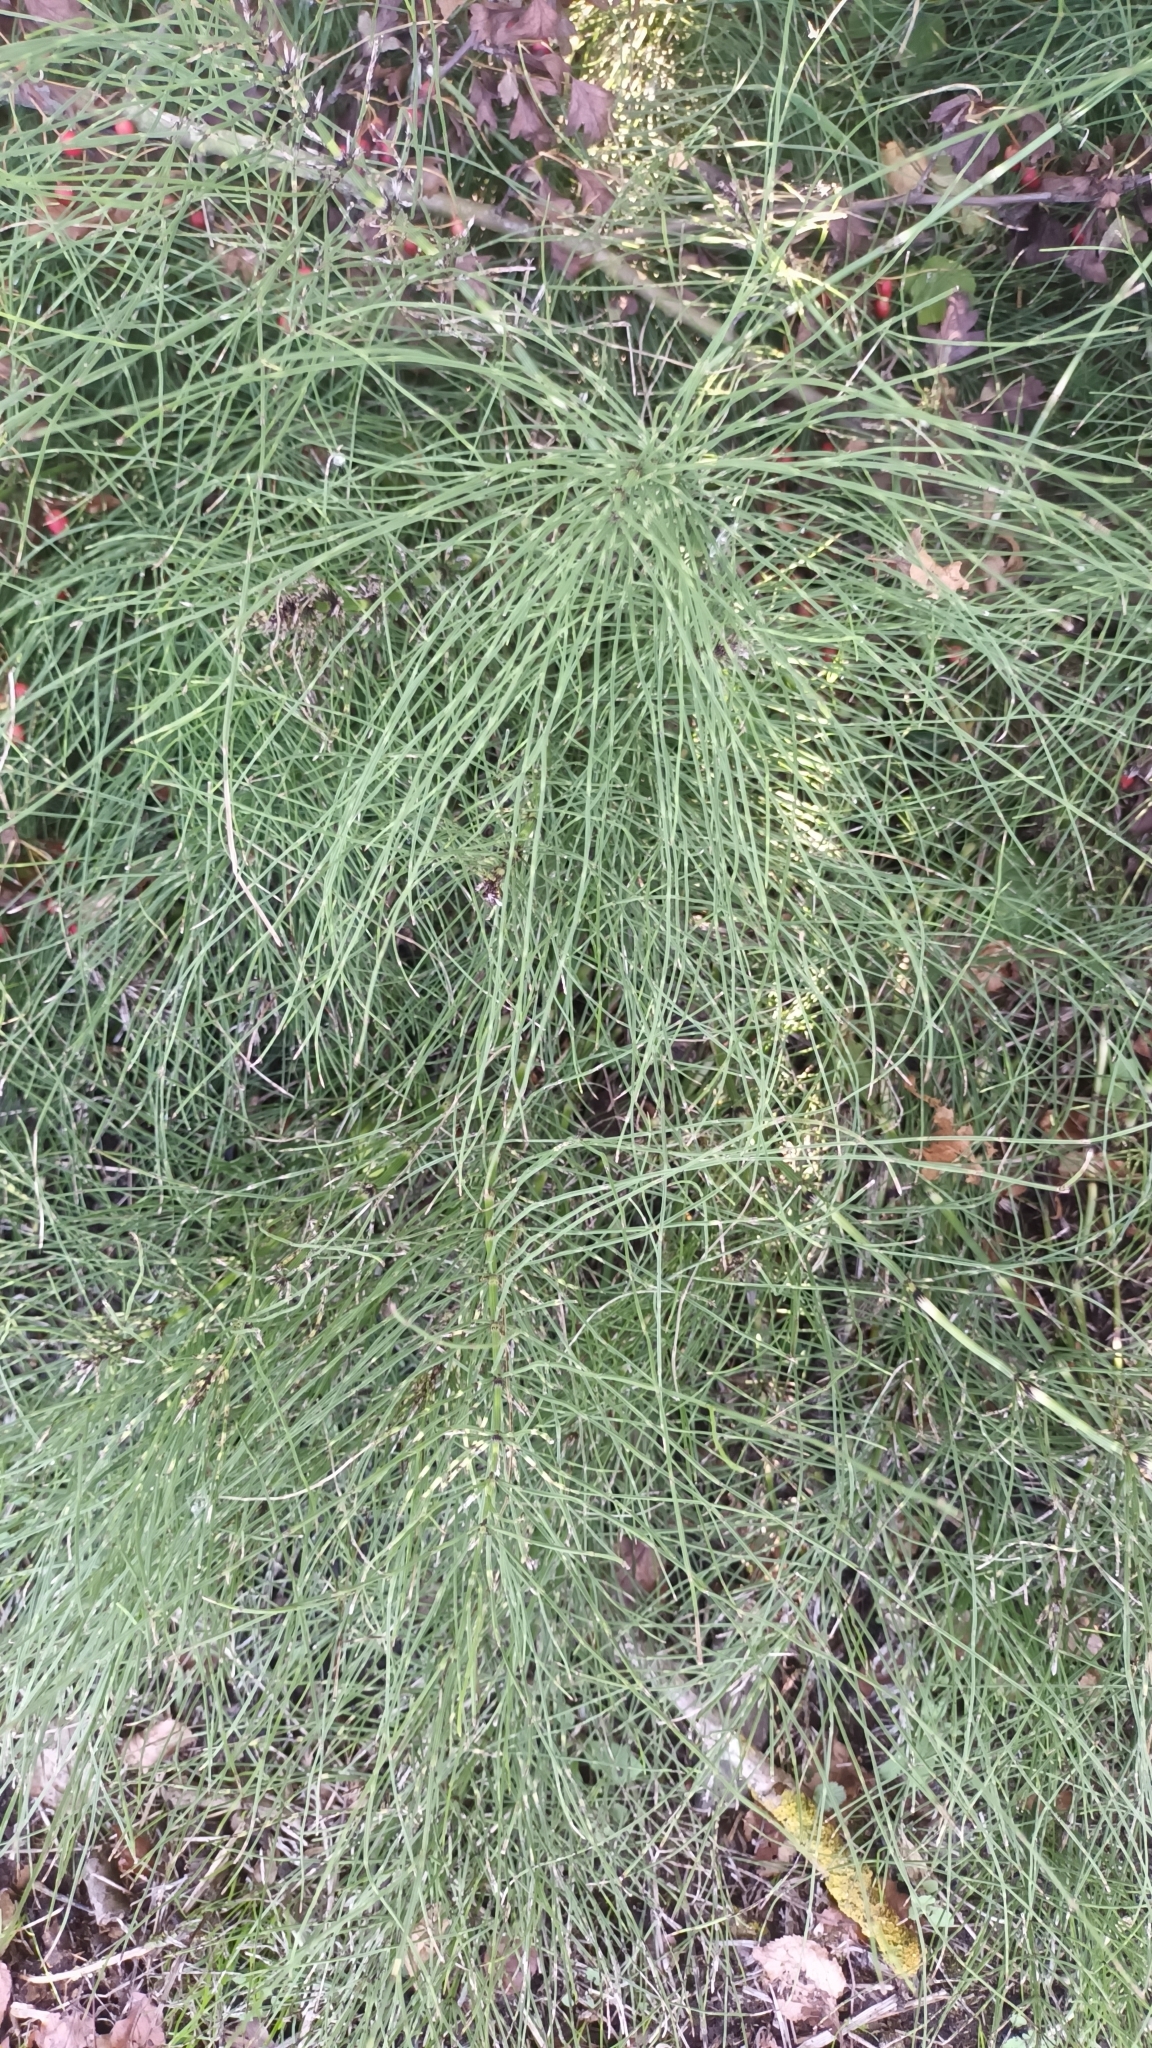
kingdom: Plantae
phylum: Tracheophyta
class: Polypodiopsida
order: Equisetales
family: Equisetaceae
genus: Equisetum
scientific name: Equisetum arvense
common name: Field horsetail
